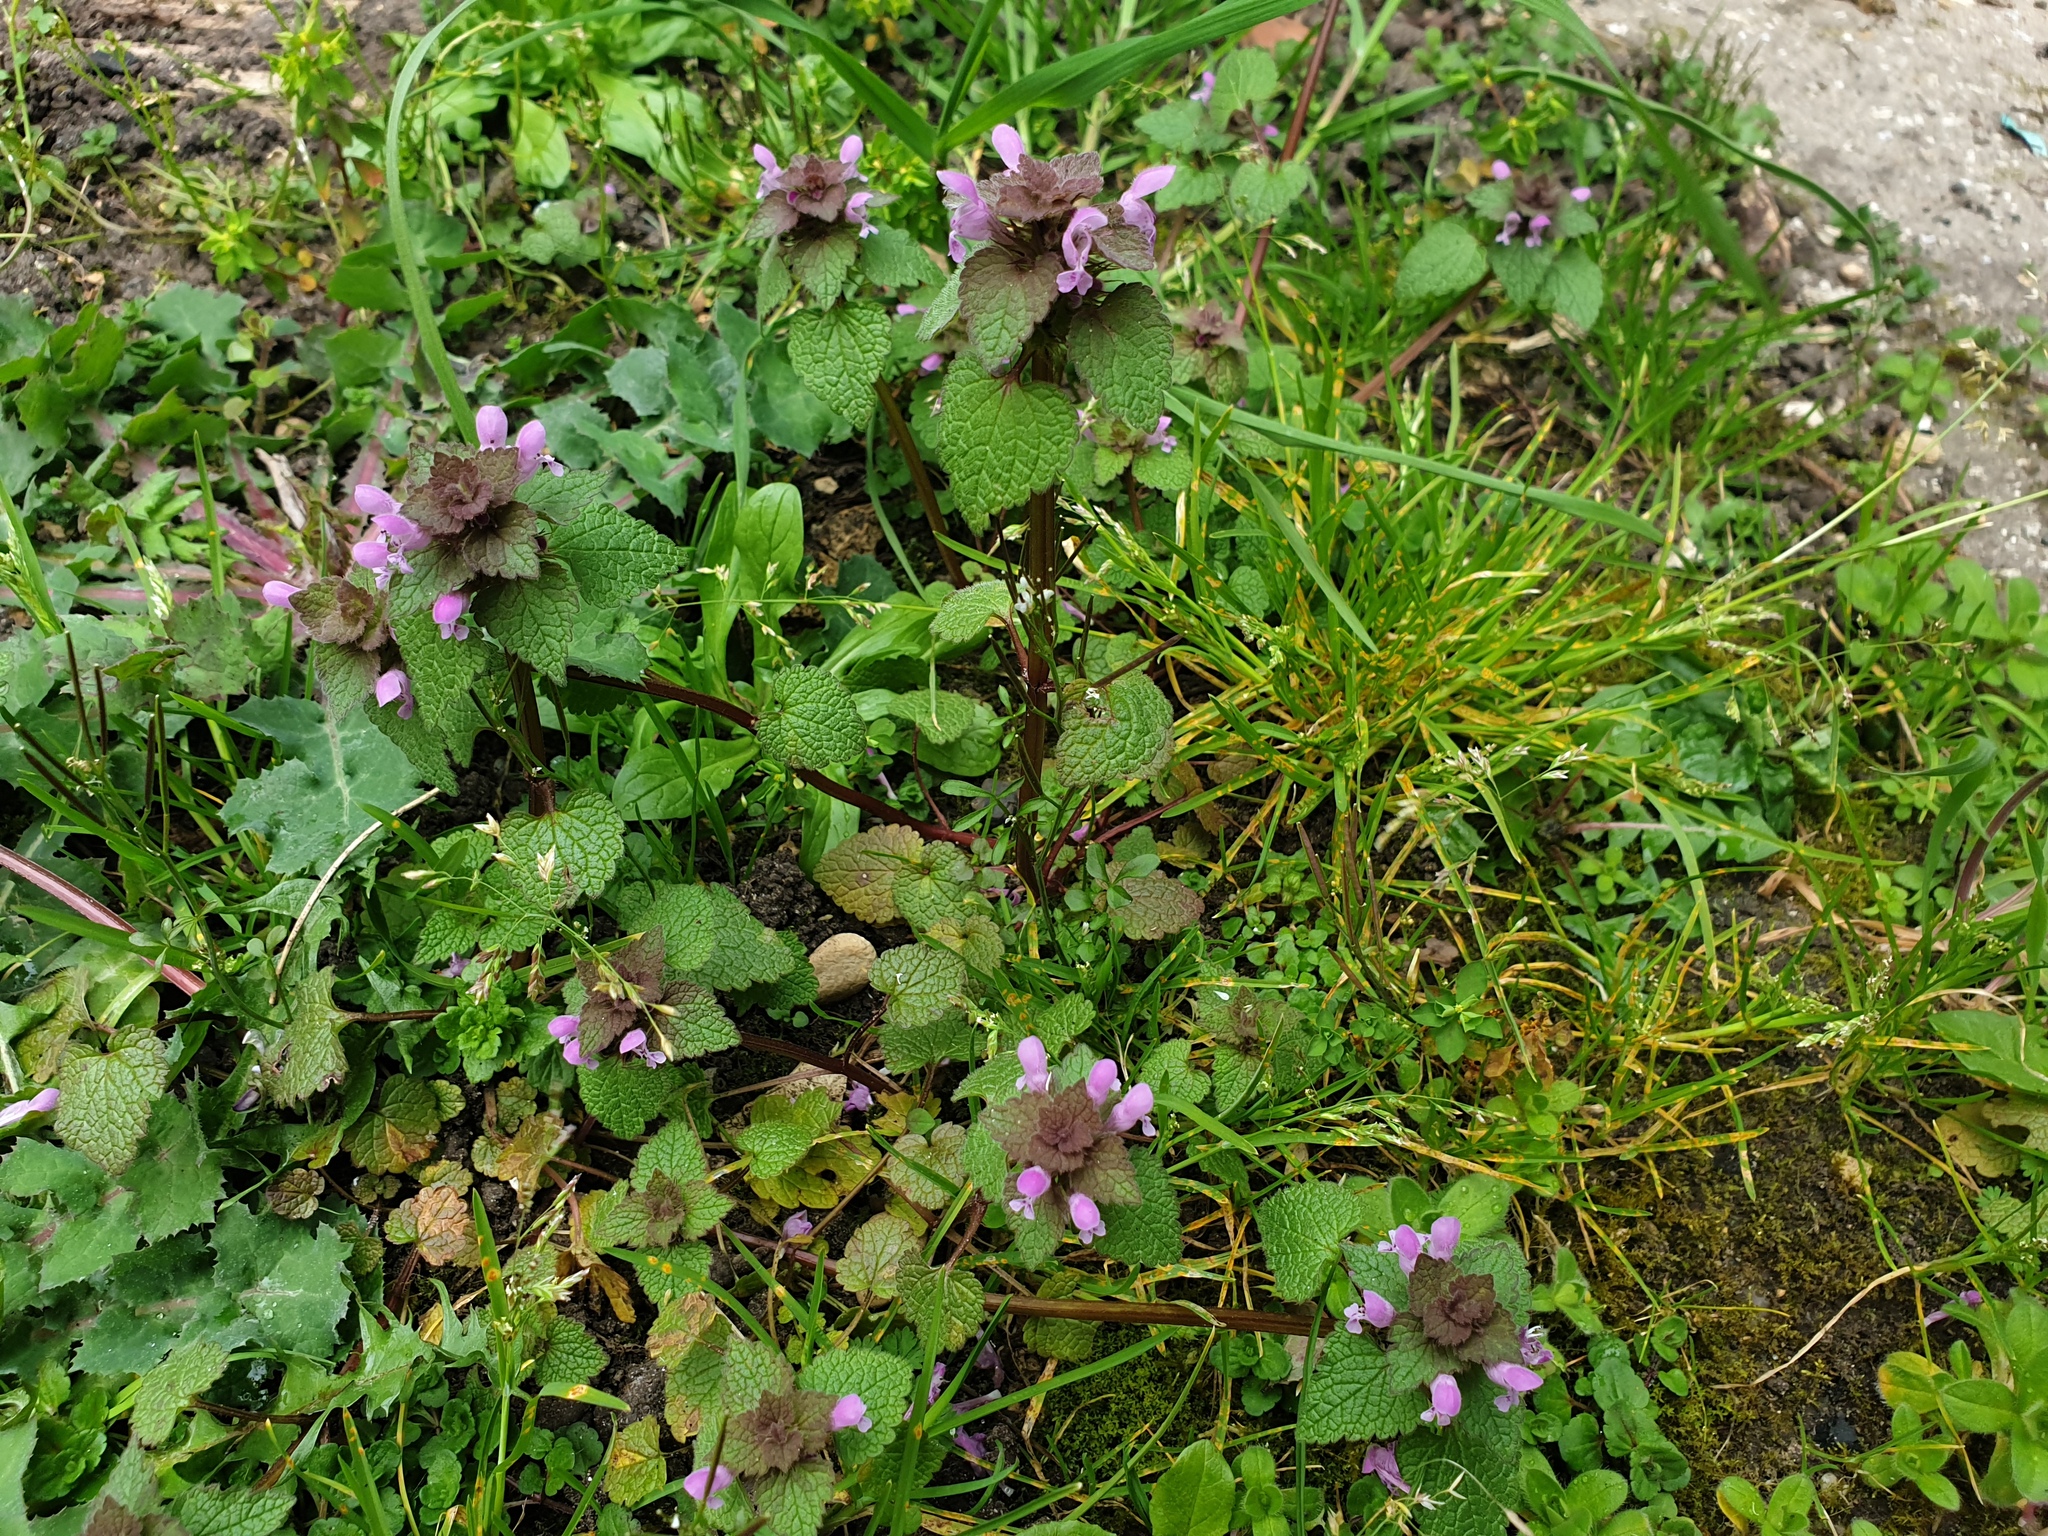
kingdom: Plantae
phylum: Tracheophyta
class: Magnoliopsida
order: Lamiales
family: Lamiaceae
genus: Lamium
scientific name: Lamium purpureum
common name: Red dead-nettle
